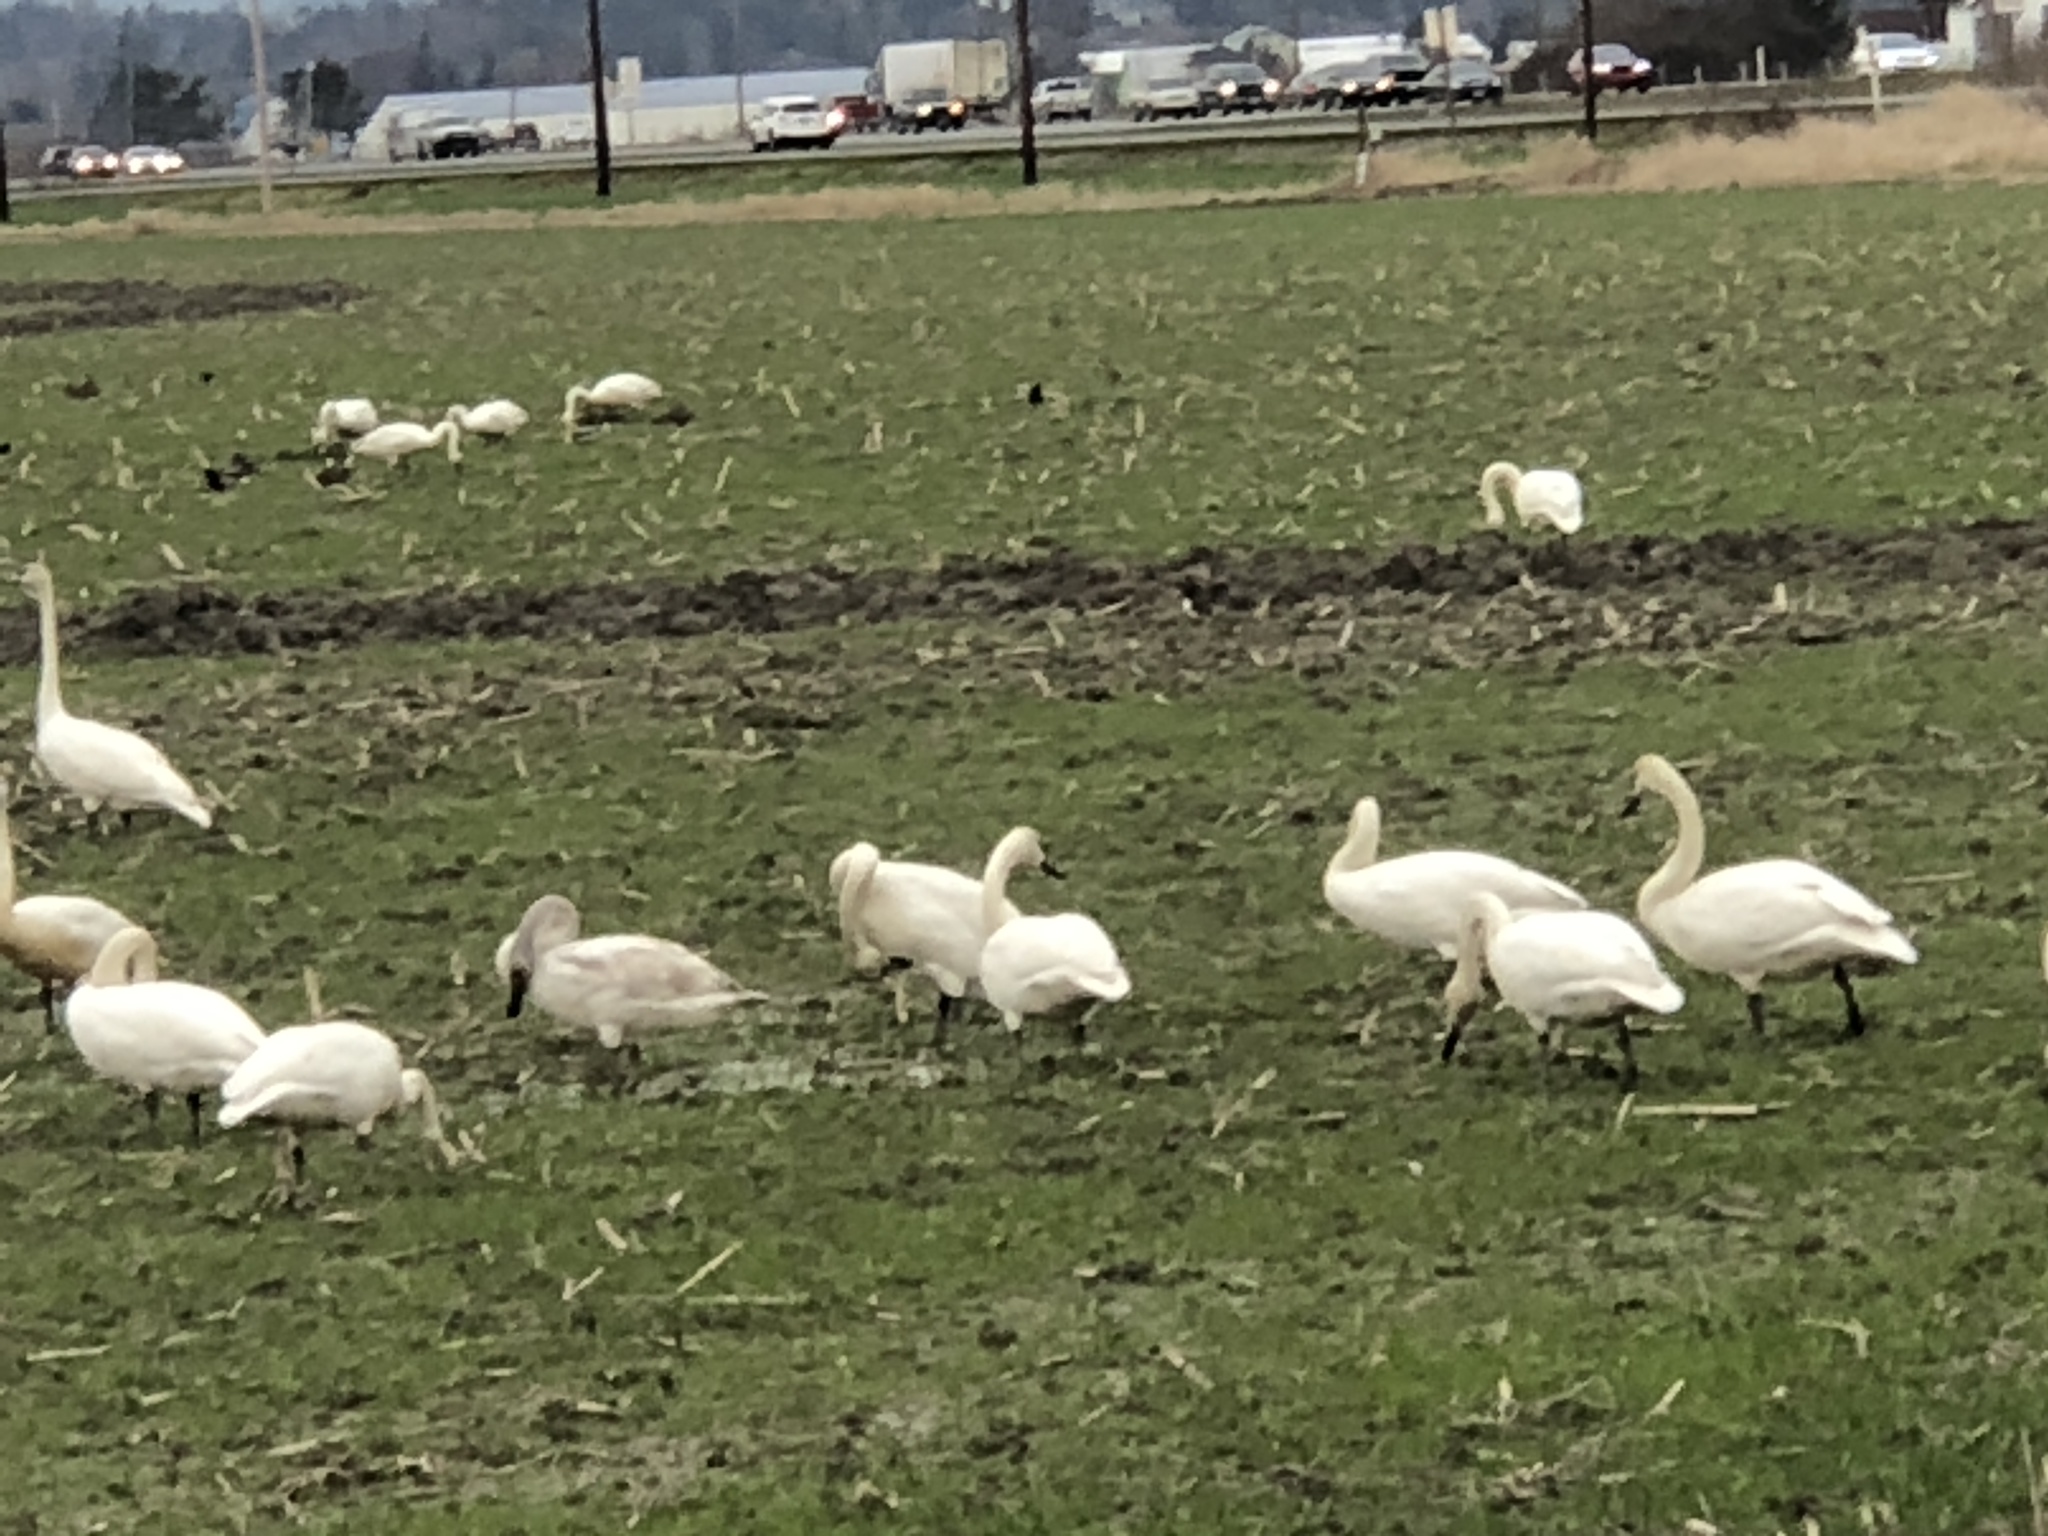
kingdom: Animalia
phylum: Chordata
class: Aves
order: Anseriformes
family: Anatidae
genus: Cygnus
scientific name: Cygnus buccinator
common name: Trumpeter swan
